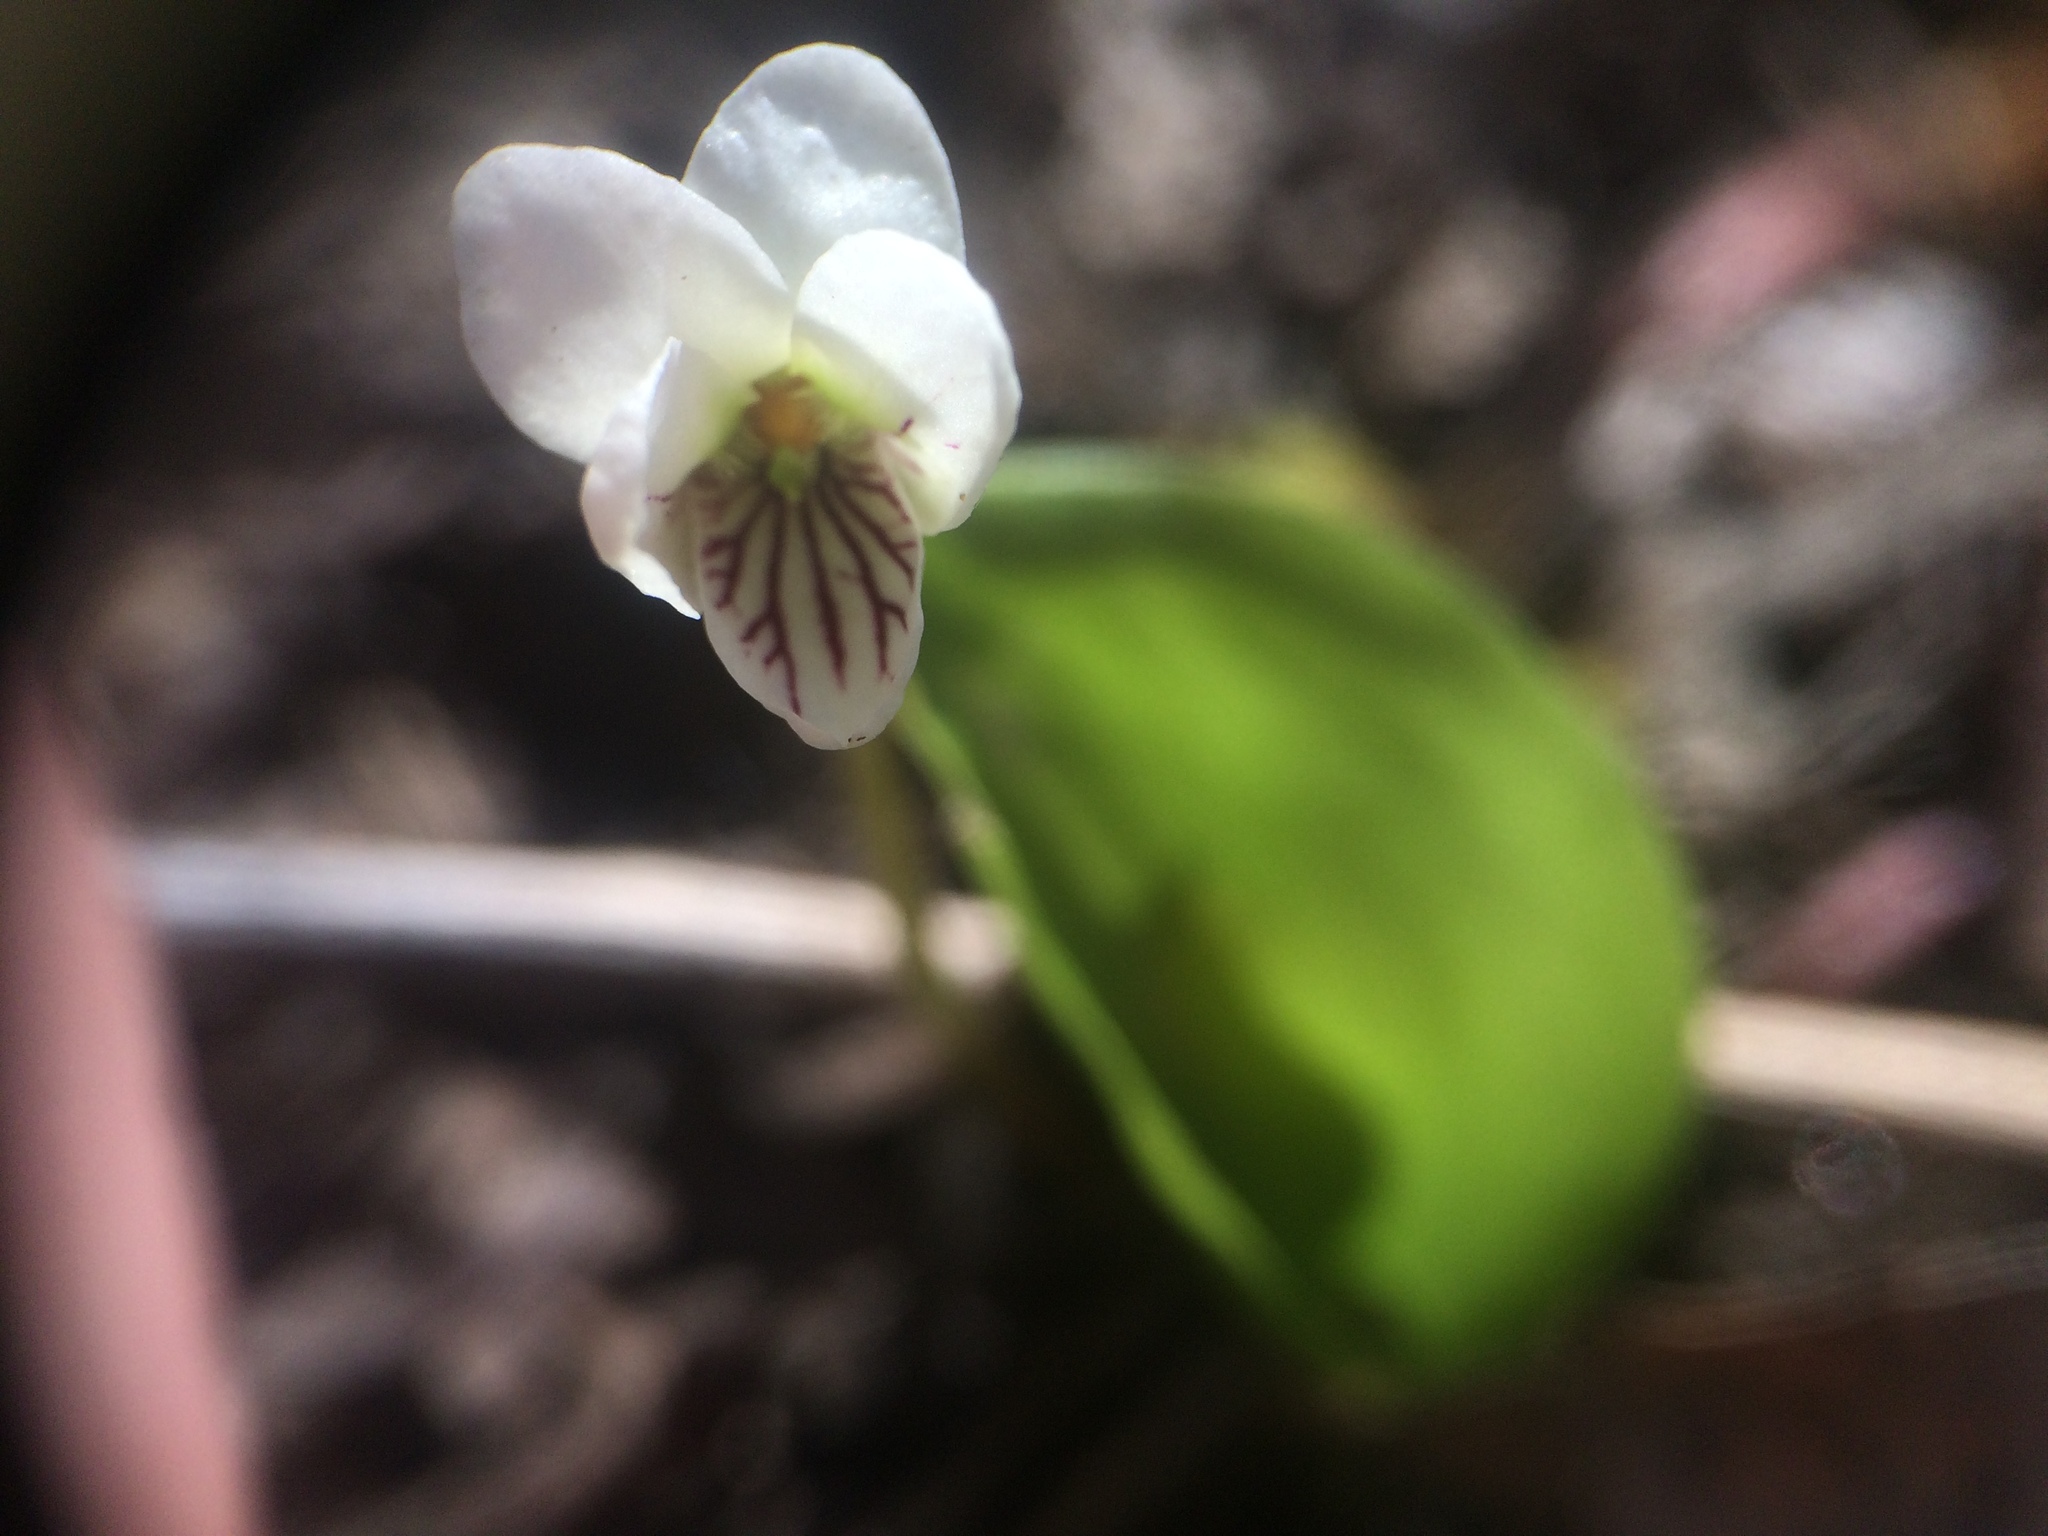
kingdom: Plantae
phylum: Tracheophyta
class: Magnoliopsida
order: Malpighiales
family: Violaceae
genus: Viola
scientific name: Viola incognita
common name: Largeleaf white violet
